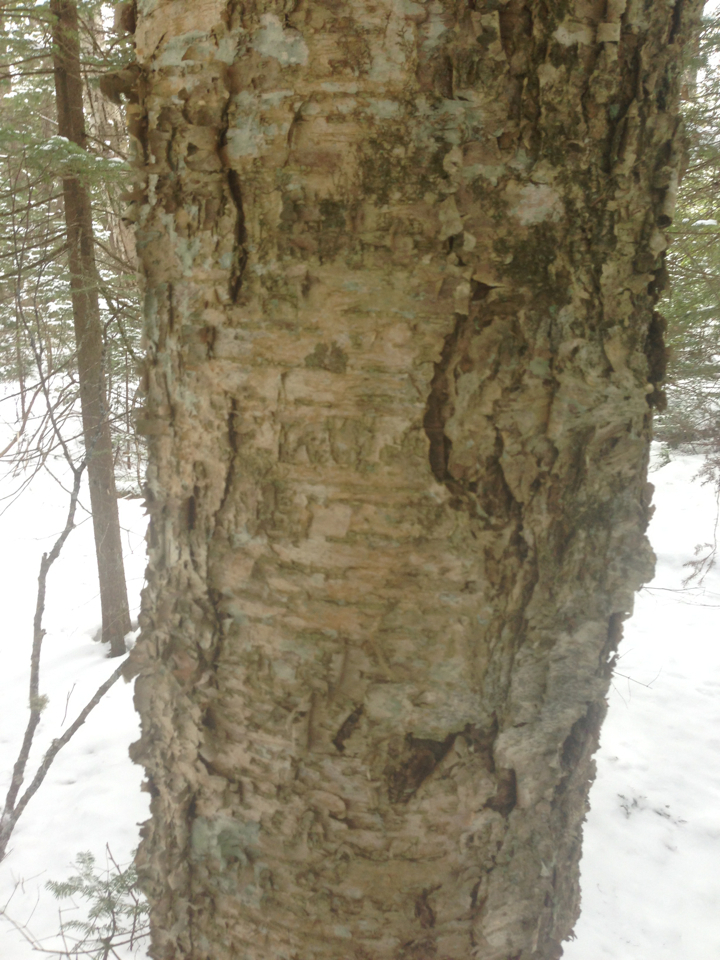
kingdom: Plantae
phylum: Tracheophyta
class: Magnoliopsida
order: Fagales
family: Betulaceae
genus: Betula
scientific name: Betula alleghaniensis
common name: Yellow birch
